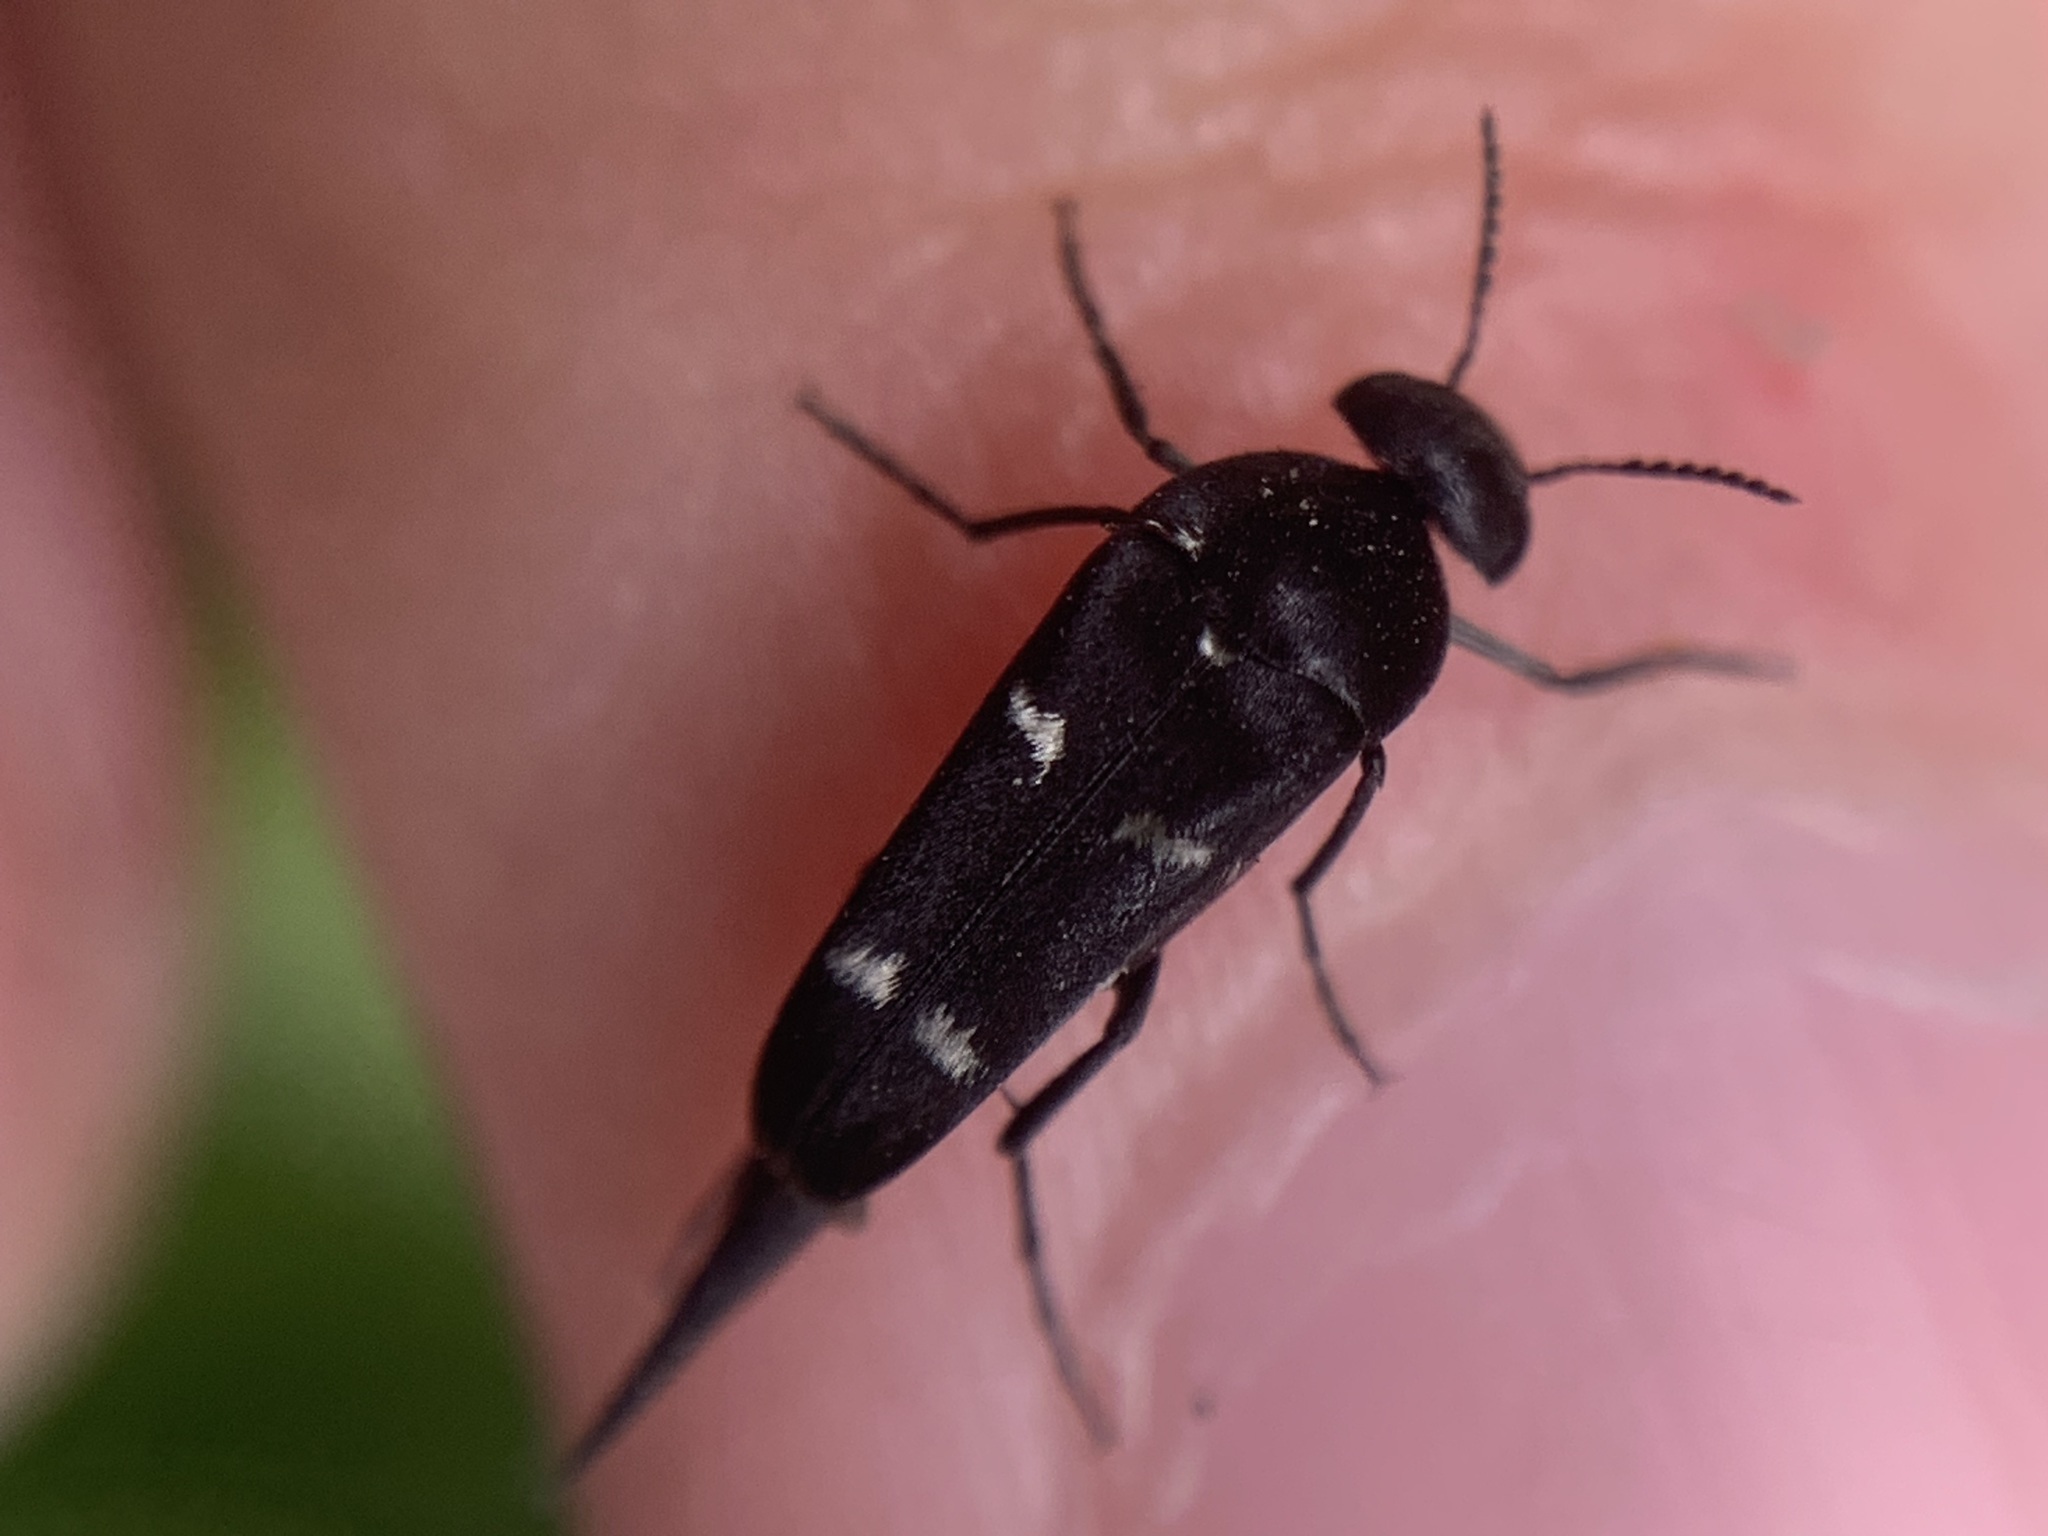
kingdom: Animalia
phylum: Arthropoda
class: Insecta
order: Coleoptera
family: Mordellidae
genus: Mordella
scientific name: Mordella
